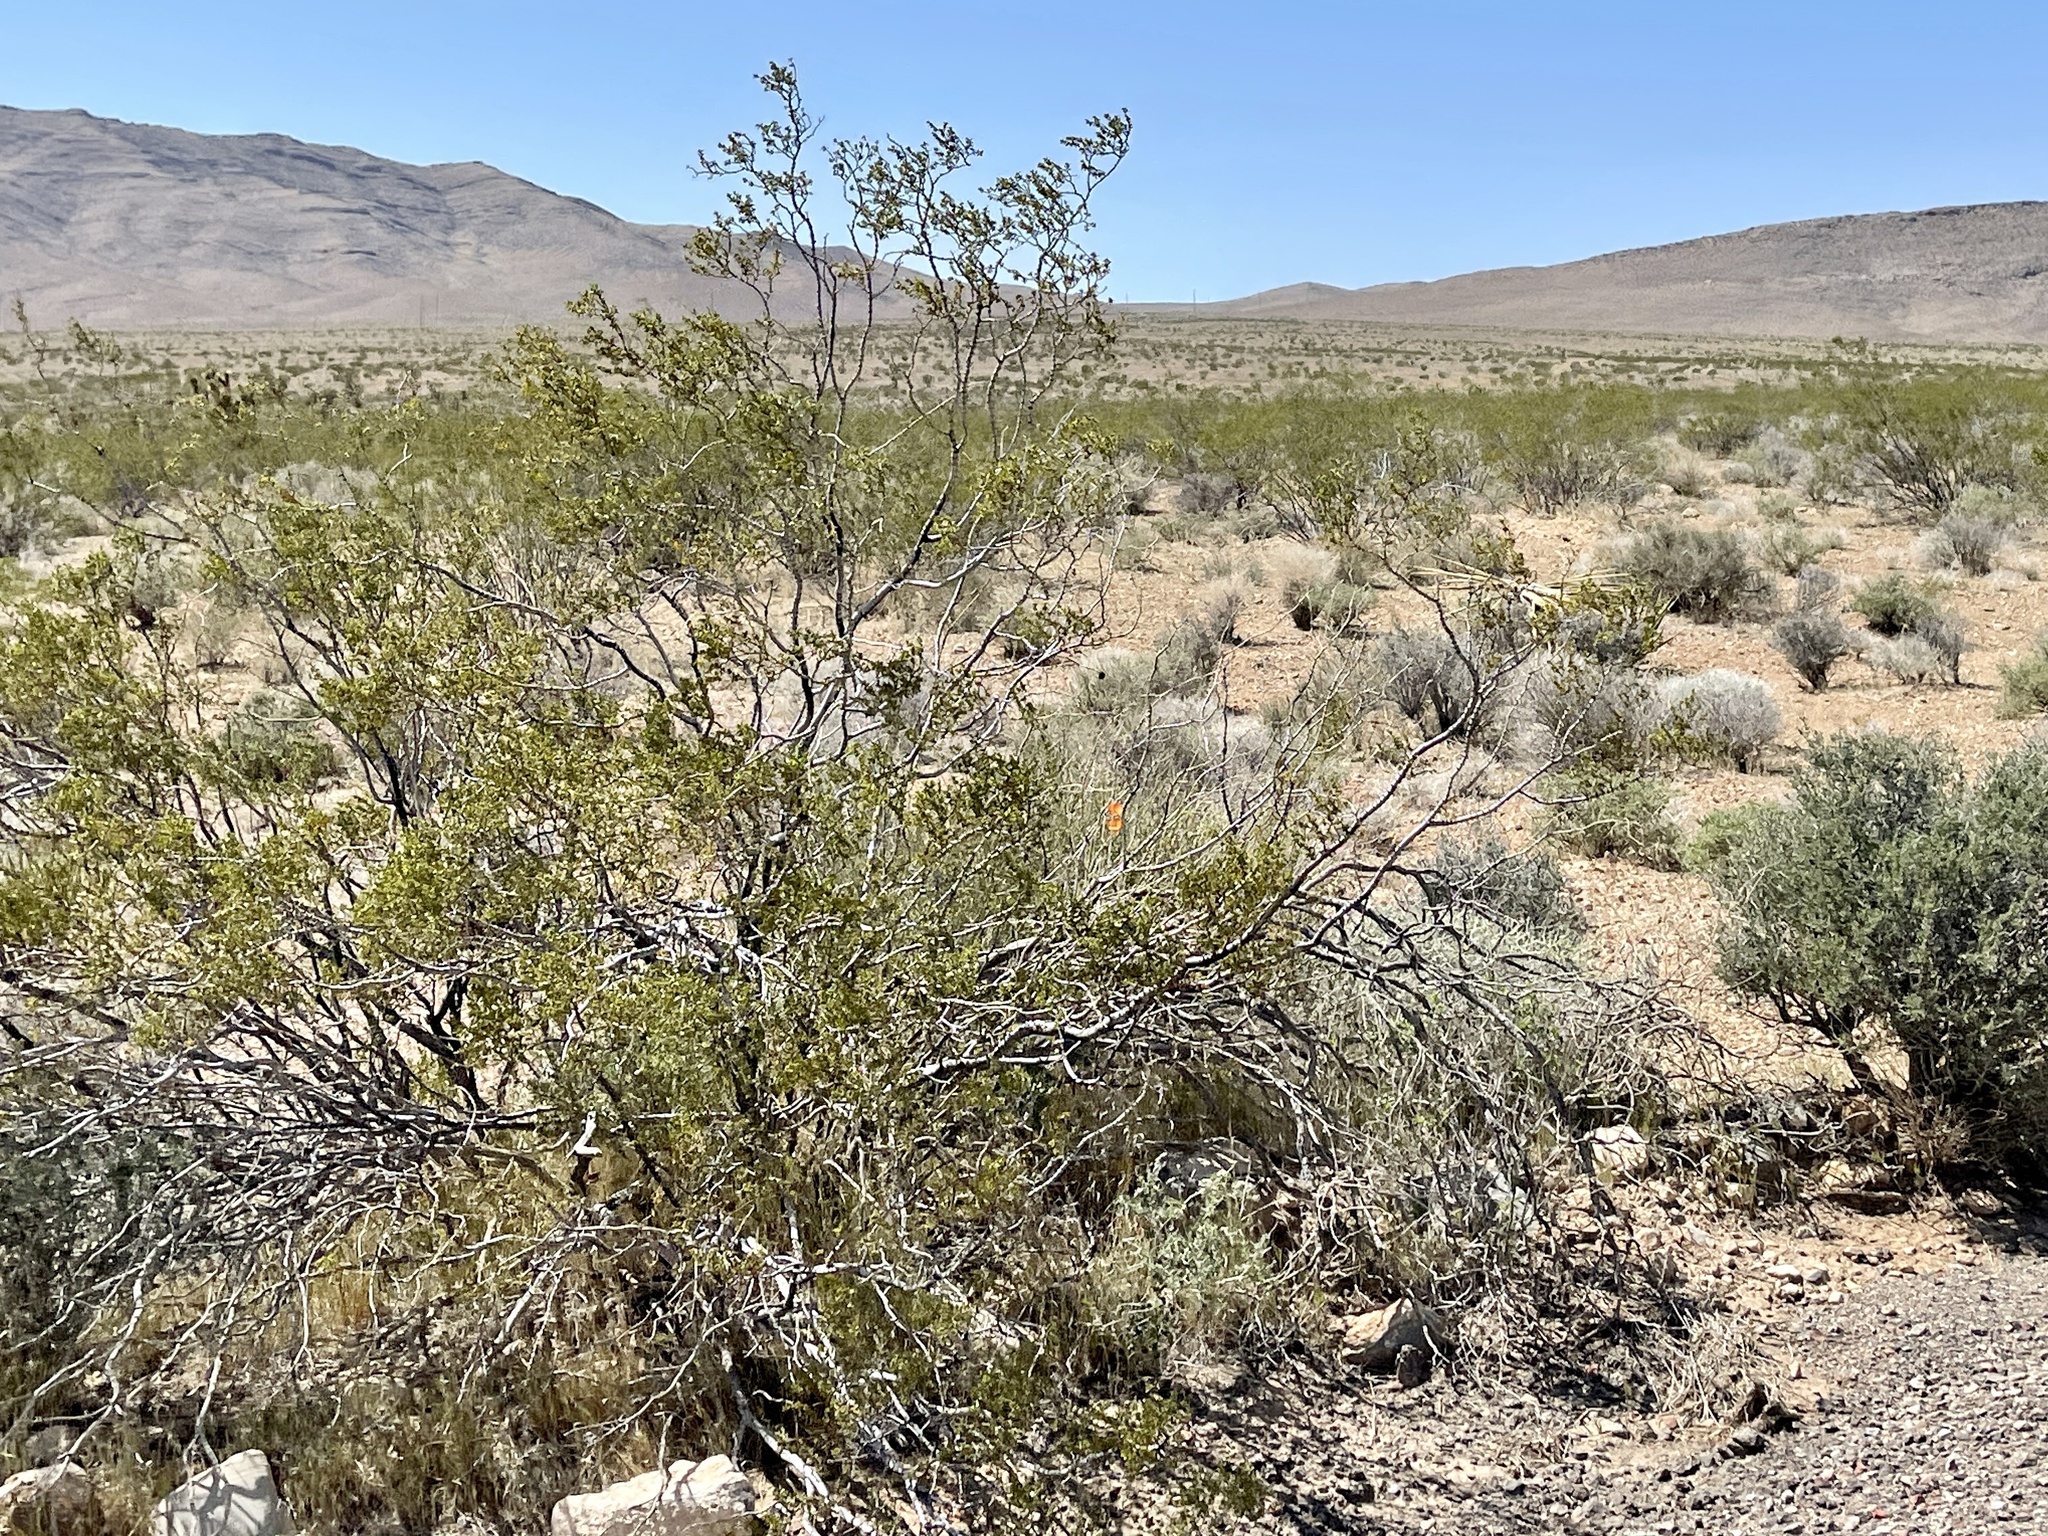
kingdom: Plantae
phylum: Tracheophyta
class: Magnoliopsida
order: Zygophyllales
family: Zygophyllaceae
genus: Larrea
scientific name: Larrea tridentata
